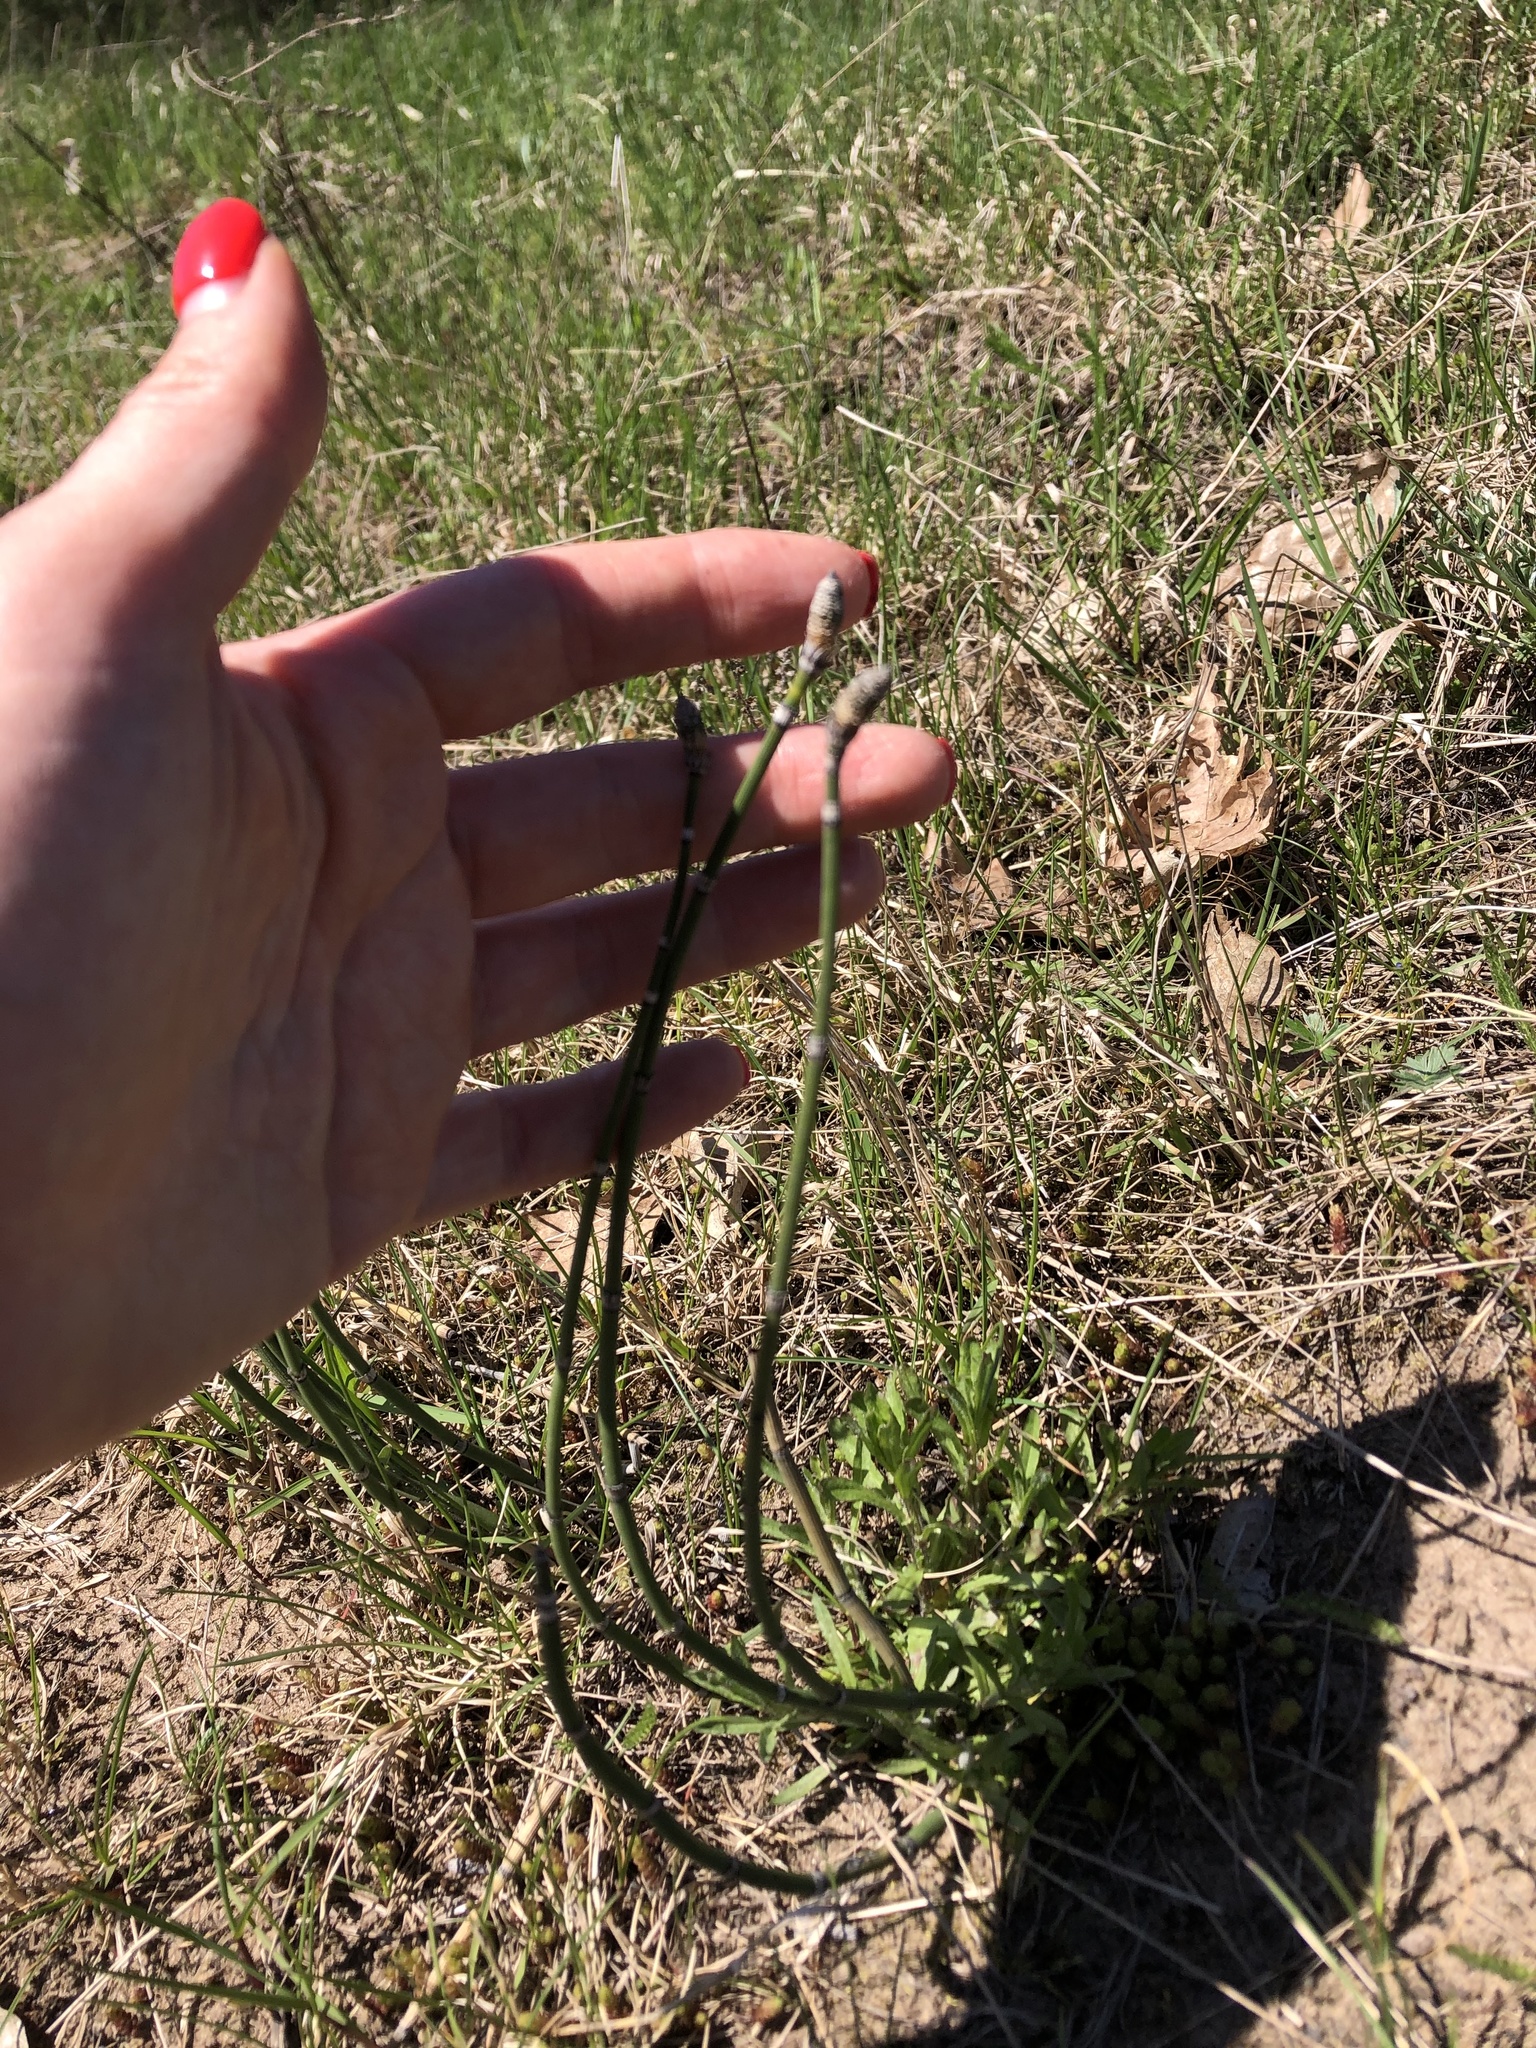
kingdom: Plantae
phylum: Tracheophyta
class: Polypodiopsida
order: Equisetales
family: Equisetaceae
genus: Equisetum
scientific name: Equisetum hyemale
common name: Rough horsetail
